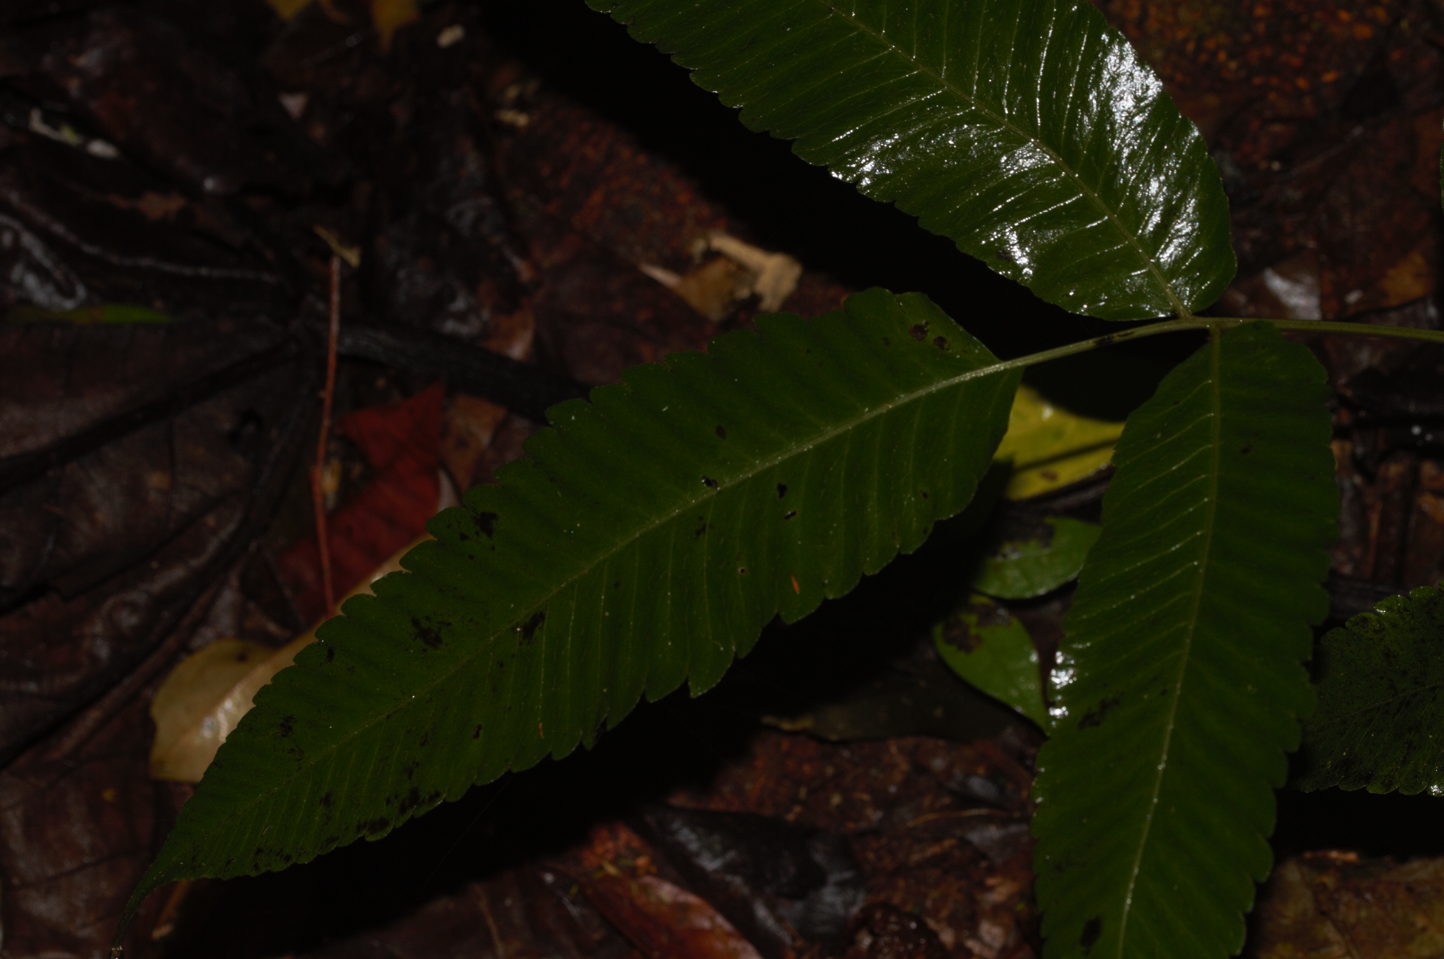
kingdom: Plantae
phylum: Tracheophyta
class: Polypodiopsida
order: Polypodiales
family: Thelypteridaceae
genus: Goniopteris
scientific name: Goniopteris poiteana
